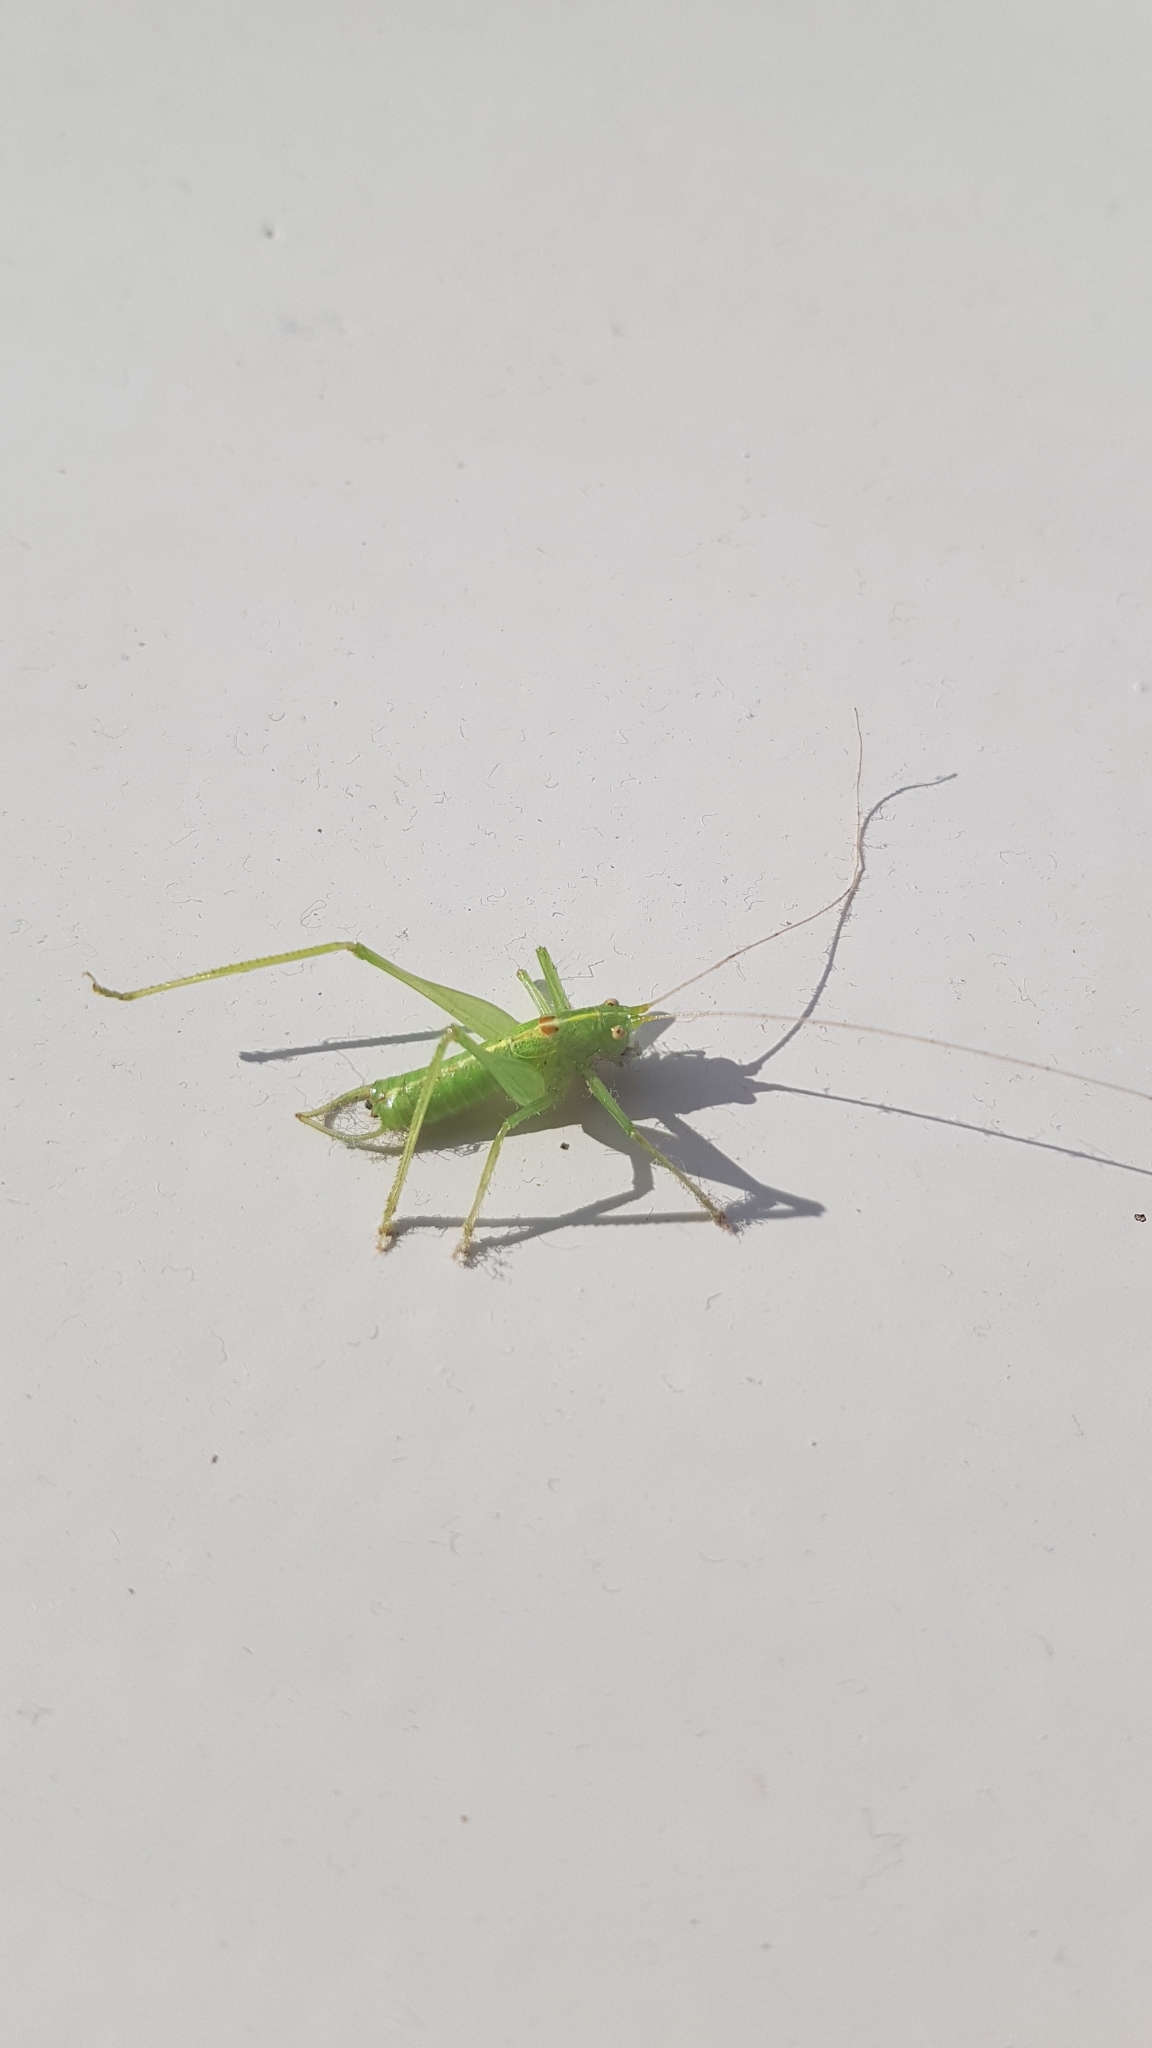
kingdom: Animalia
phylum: Arthropoda
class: Insecta
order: Orthoptera
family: Tettigoniidae
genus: Meconema
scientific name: Meconema meridionale
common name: Southern oak bush-cricket
